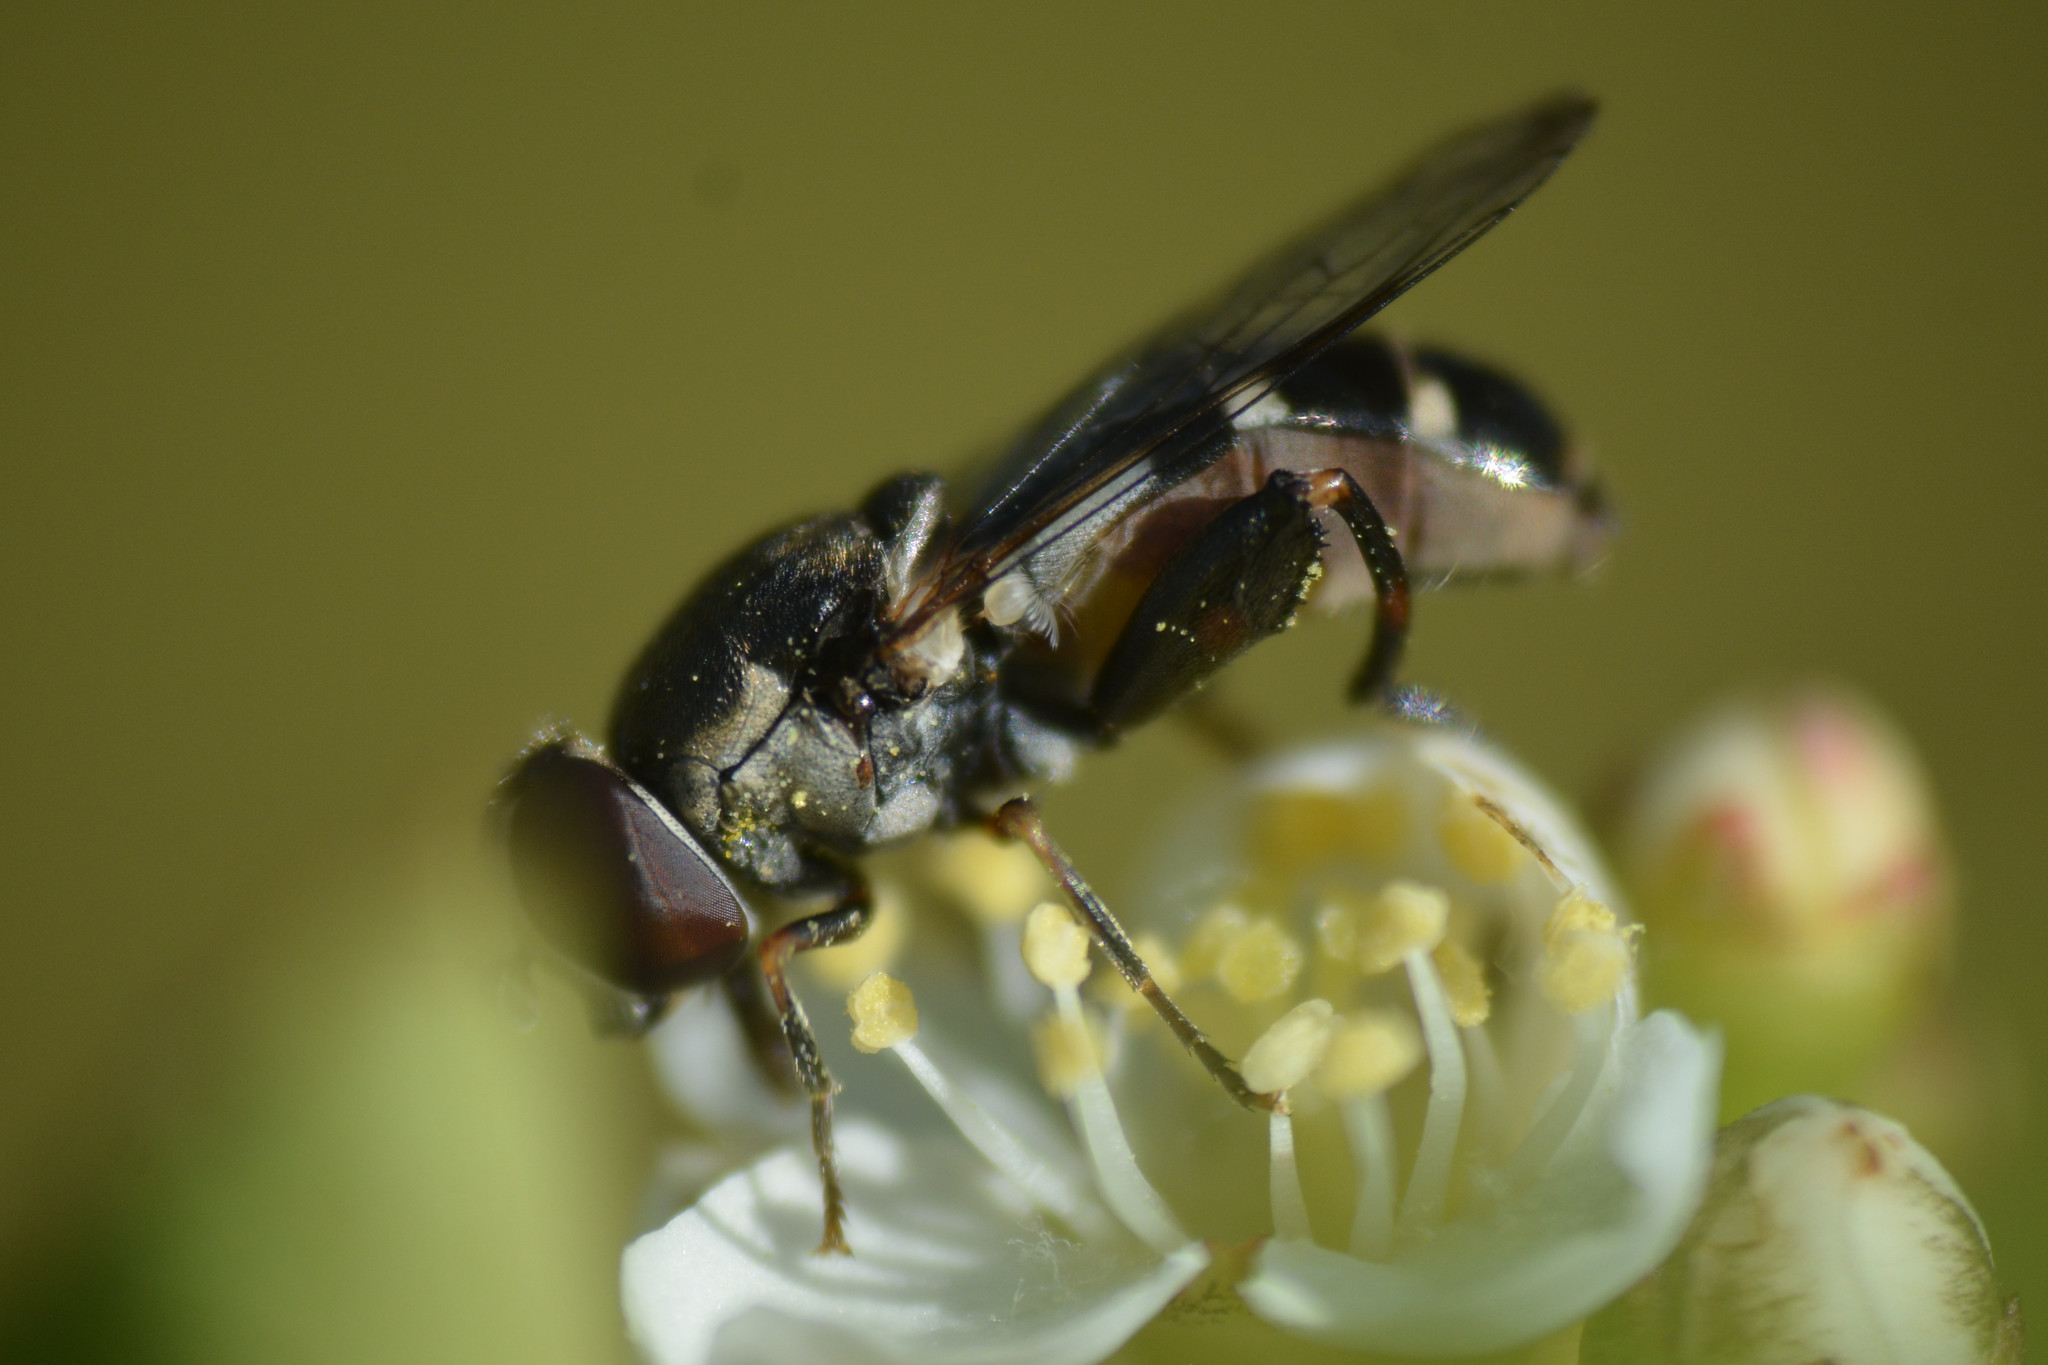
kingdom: Animalia
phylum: Arthropoda
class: Insecta
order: Diptera
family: Syrphidae
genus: Syritta
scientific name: Syritta pipiens
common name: Hover fly
